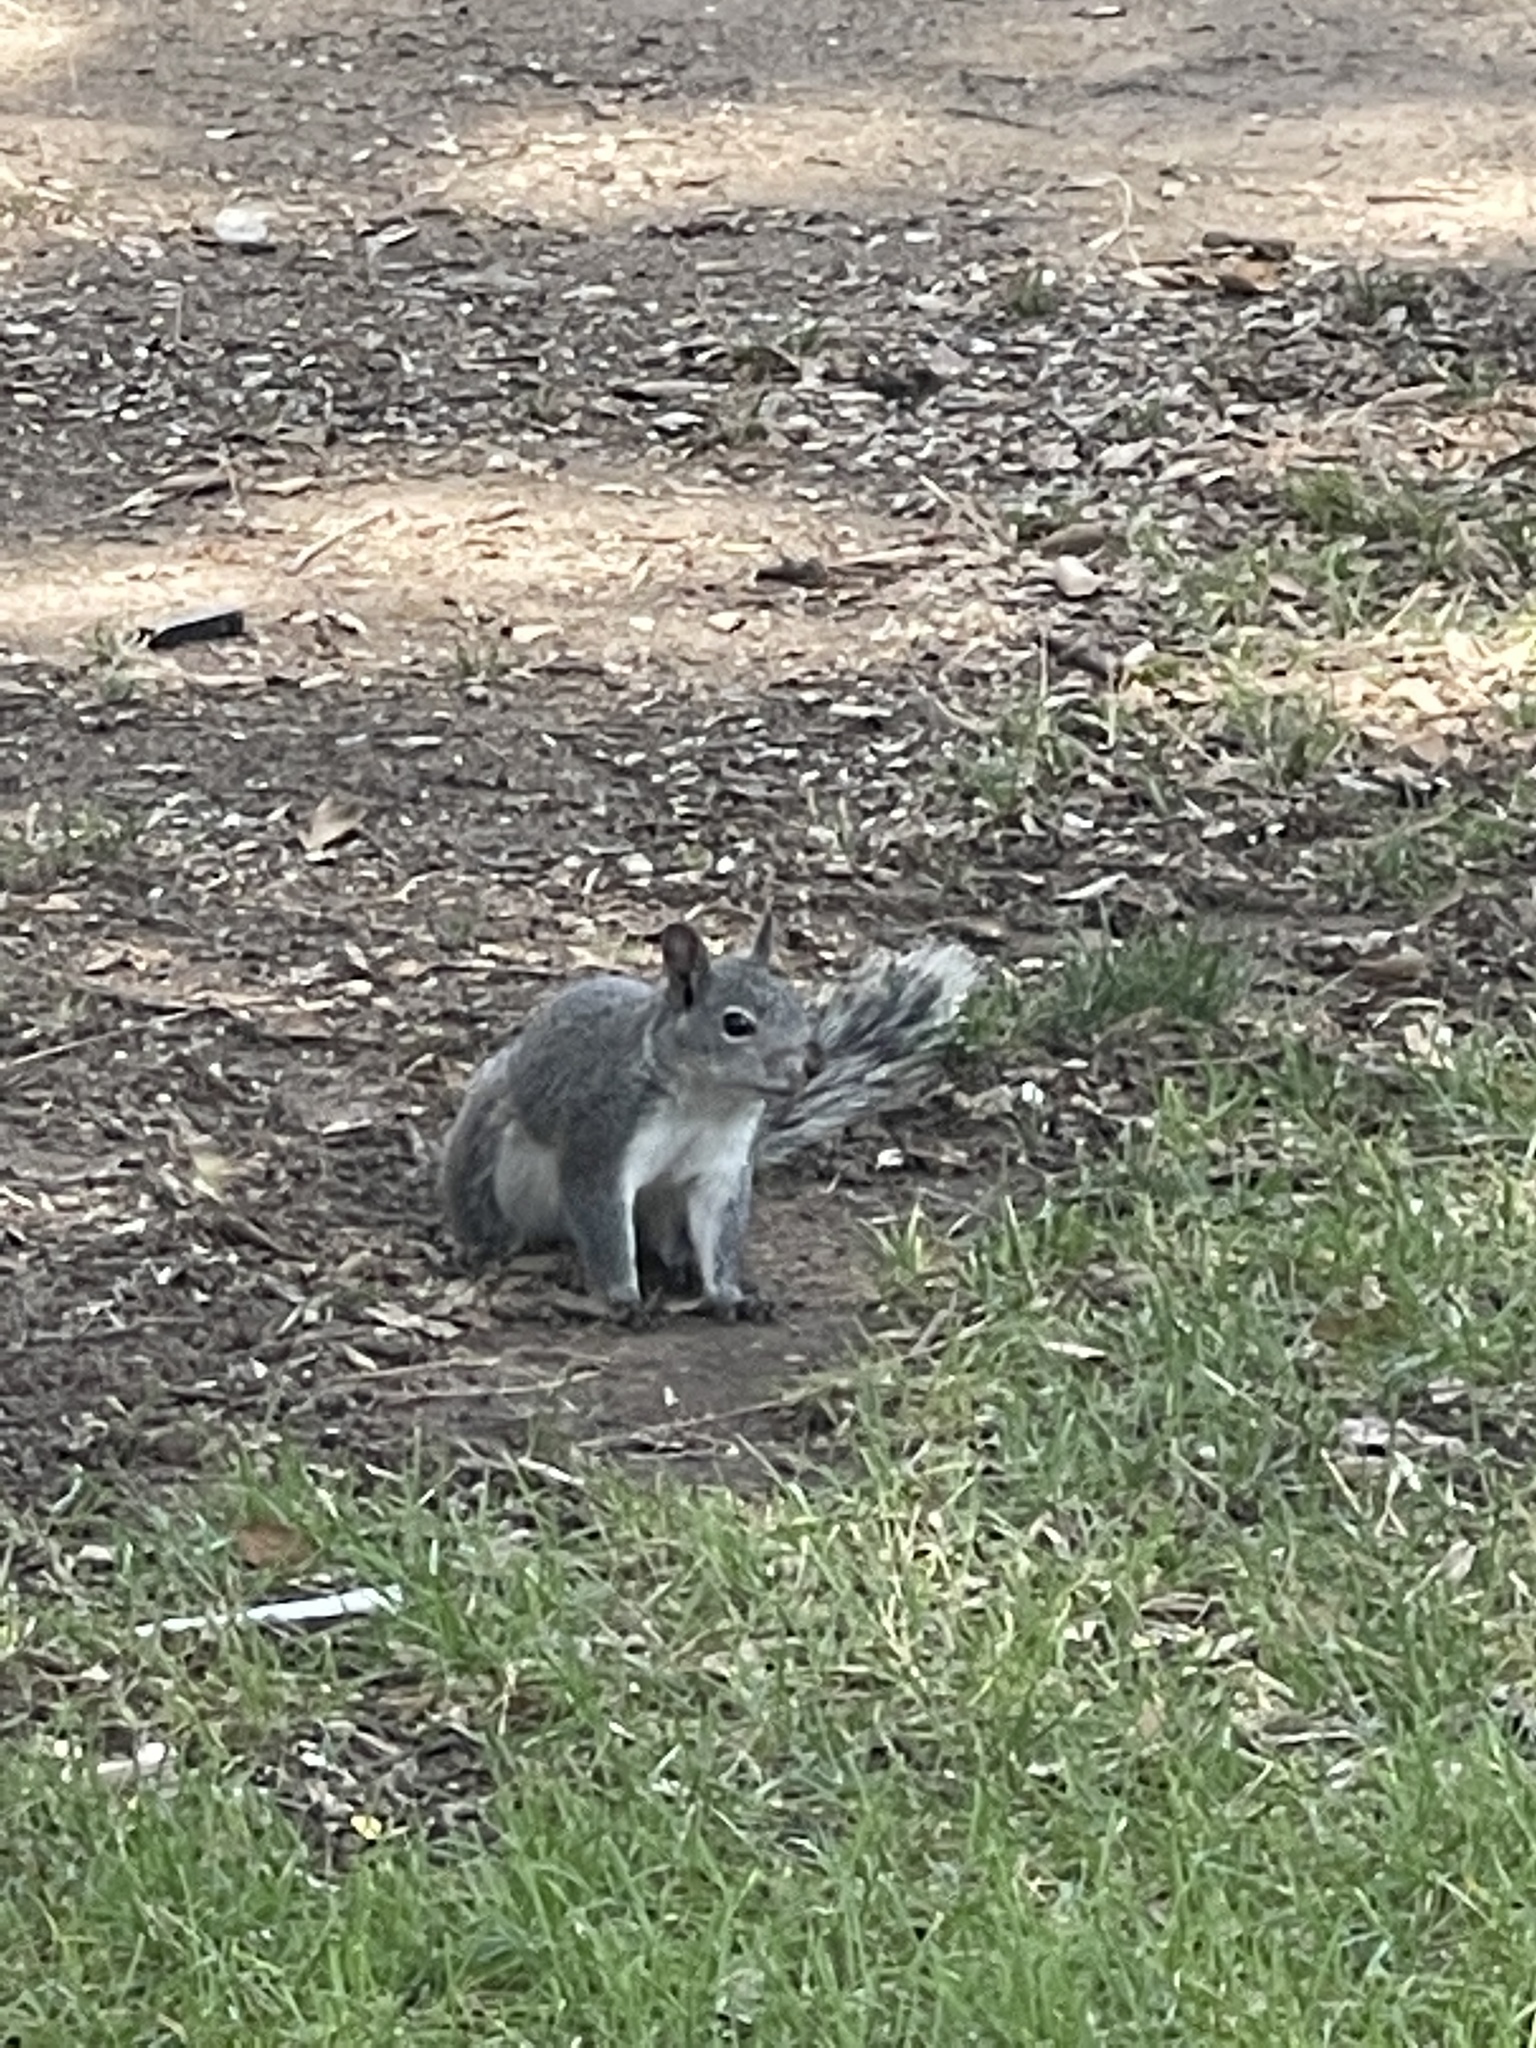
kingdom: Animalia
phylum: Chordata
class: Mammalia
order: Rodentia
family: Sciuridae
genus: Sciurus
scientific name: Sciurus griseus
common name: Western gray squirrel
